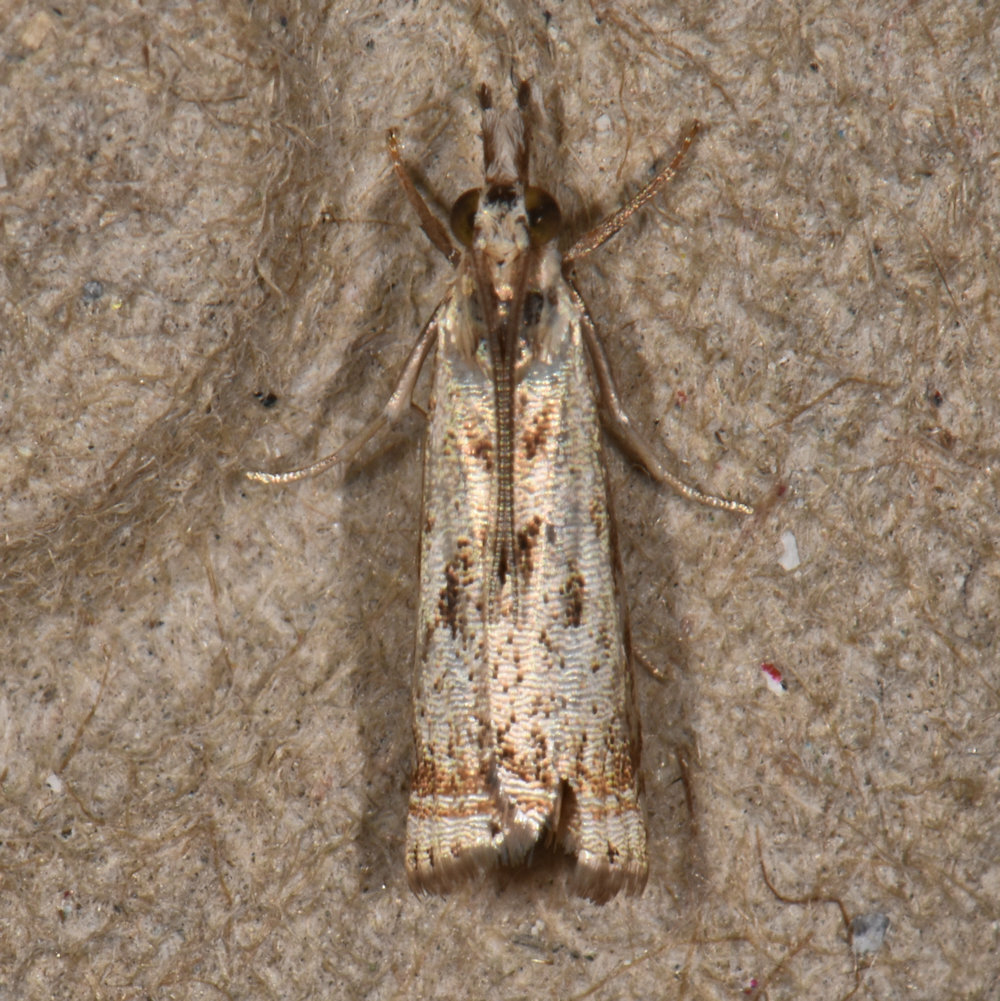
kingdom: Animalia
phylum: Arthropoda
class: Insecta
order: Lepidoptera
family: Crambidae
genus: Microcrambus
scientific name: Microcrambus elegans
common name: Elegant grass-veneer
